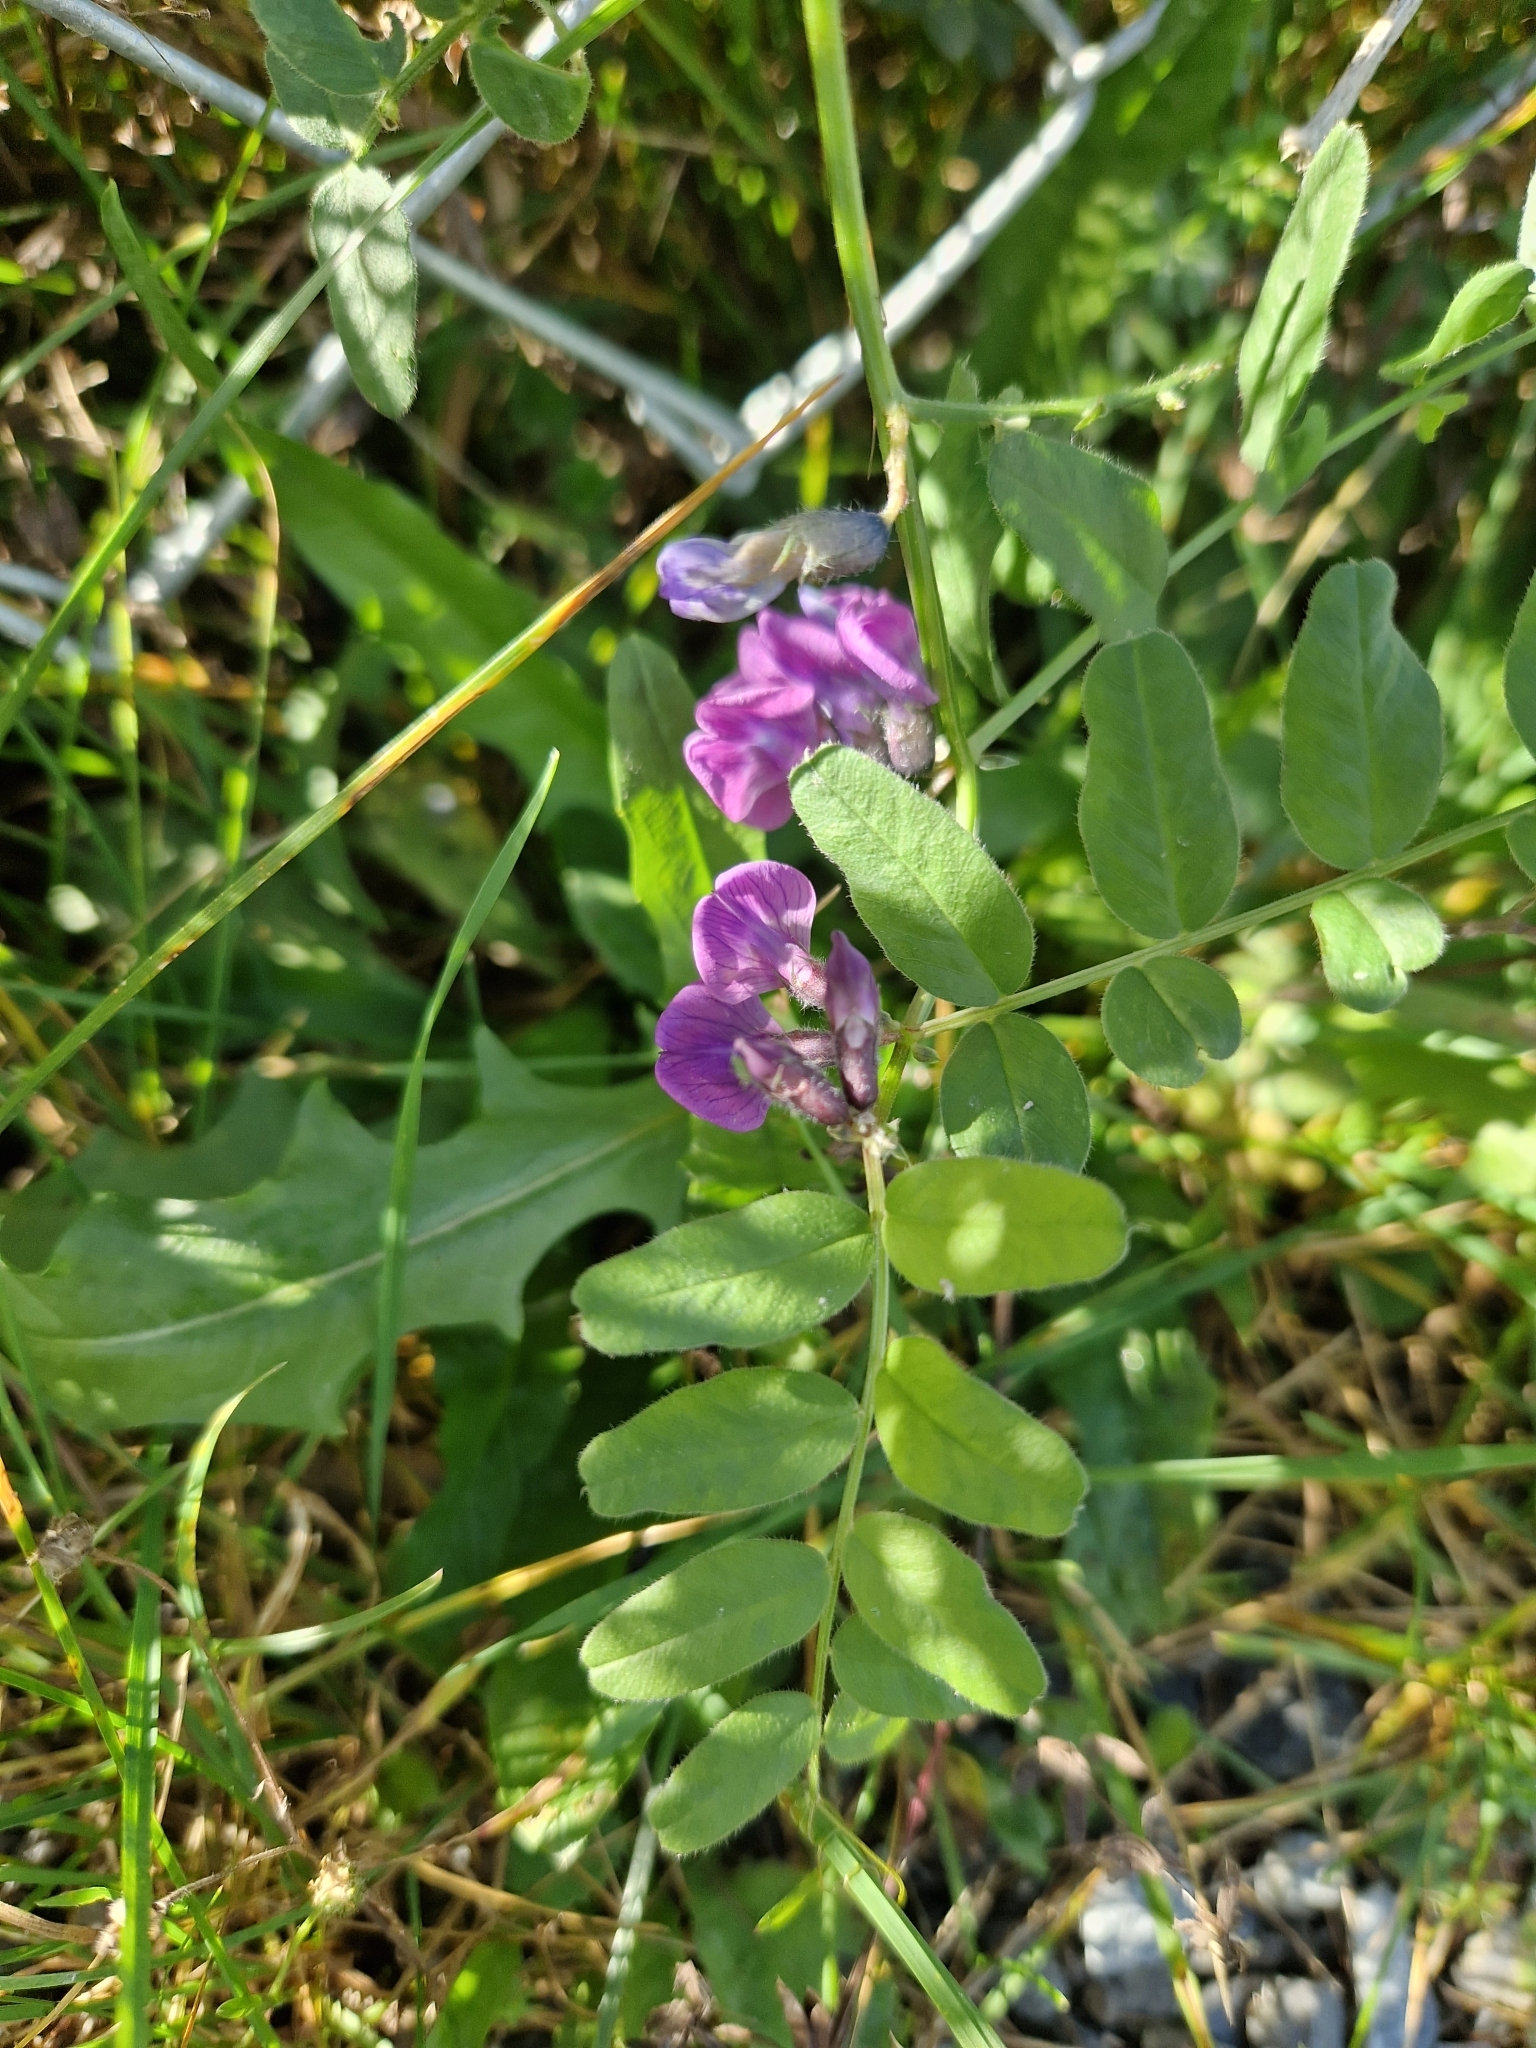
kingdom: Plantae
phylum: Tracheophyta
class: Magnoliopsida
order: Fabales
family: Fabaceae
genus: Vicia
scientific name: Vicia sepium
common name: Bush vetch
